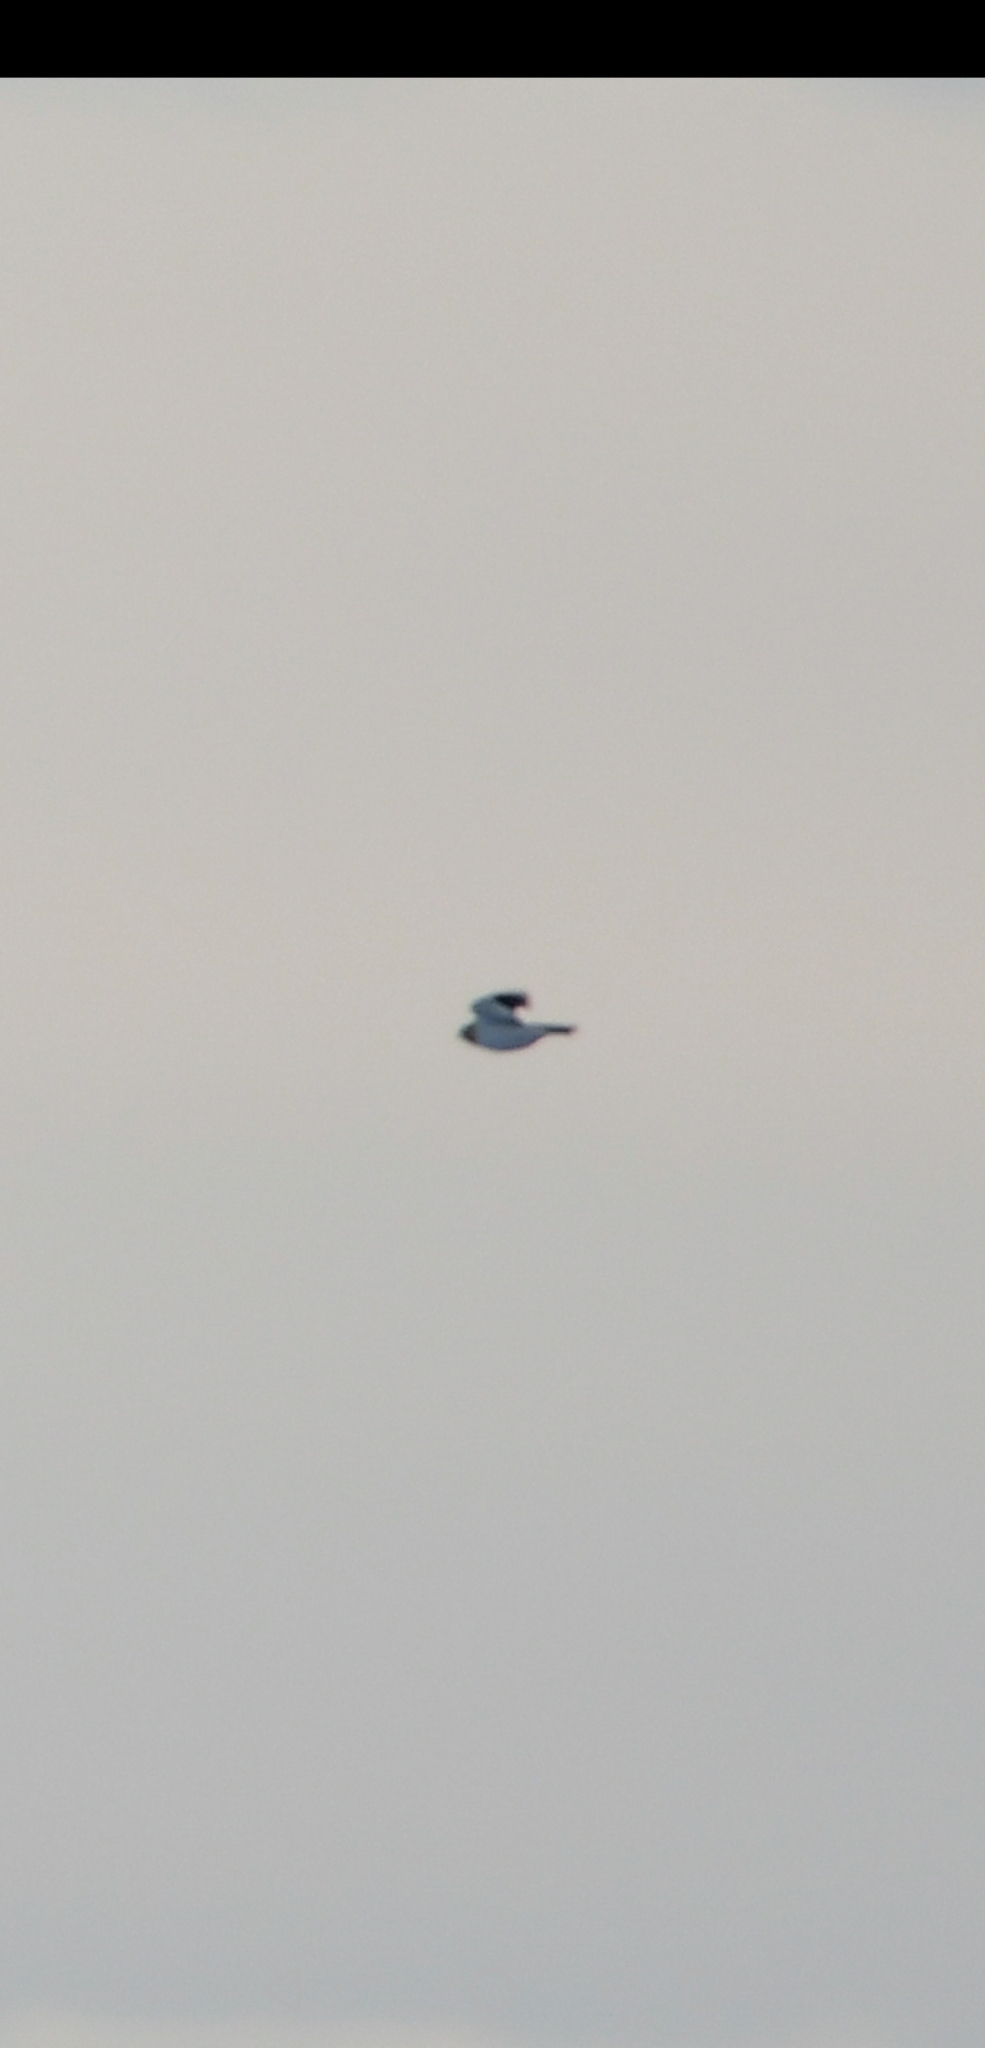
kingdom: Animalia
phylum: Chordata
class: Aves
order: Passeriformes
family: Calcariidae
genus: Plectrophenax
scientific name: Plectrophenax nivalis
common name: Snow bunting
